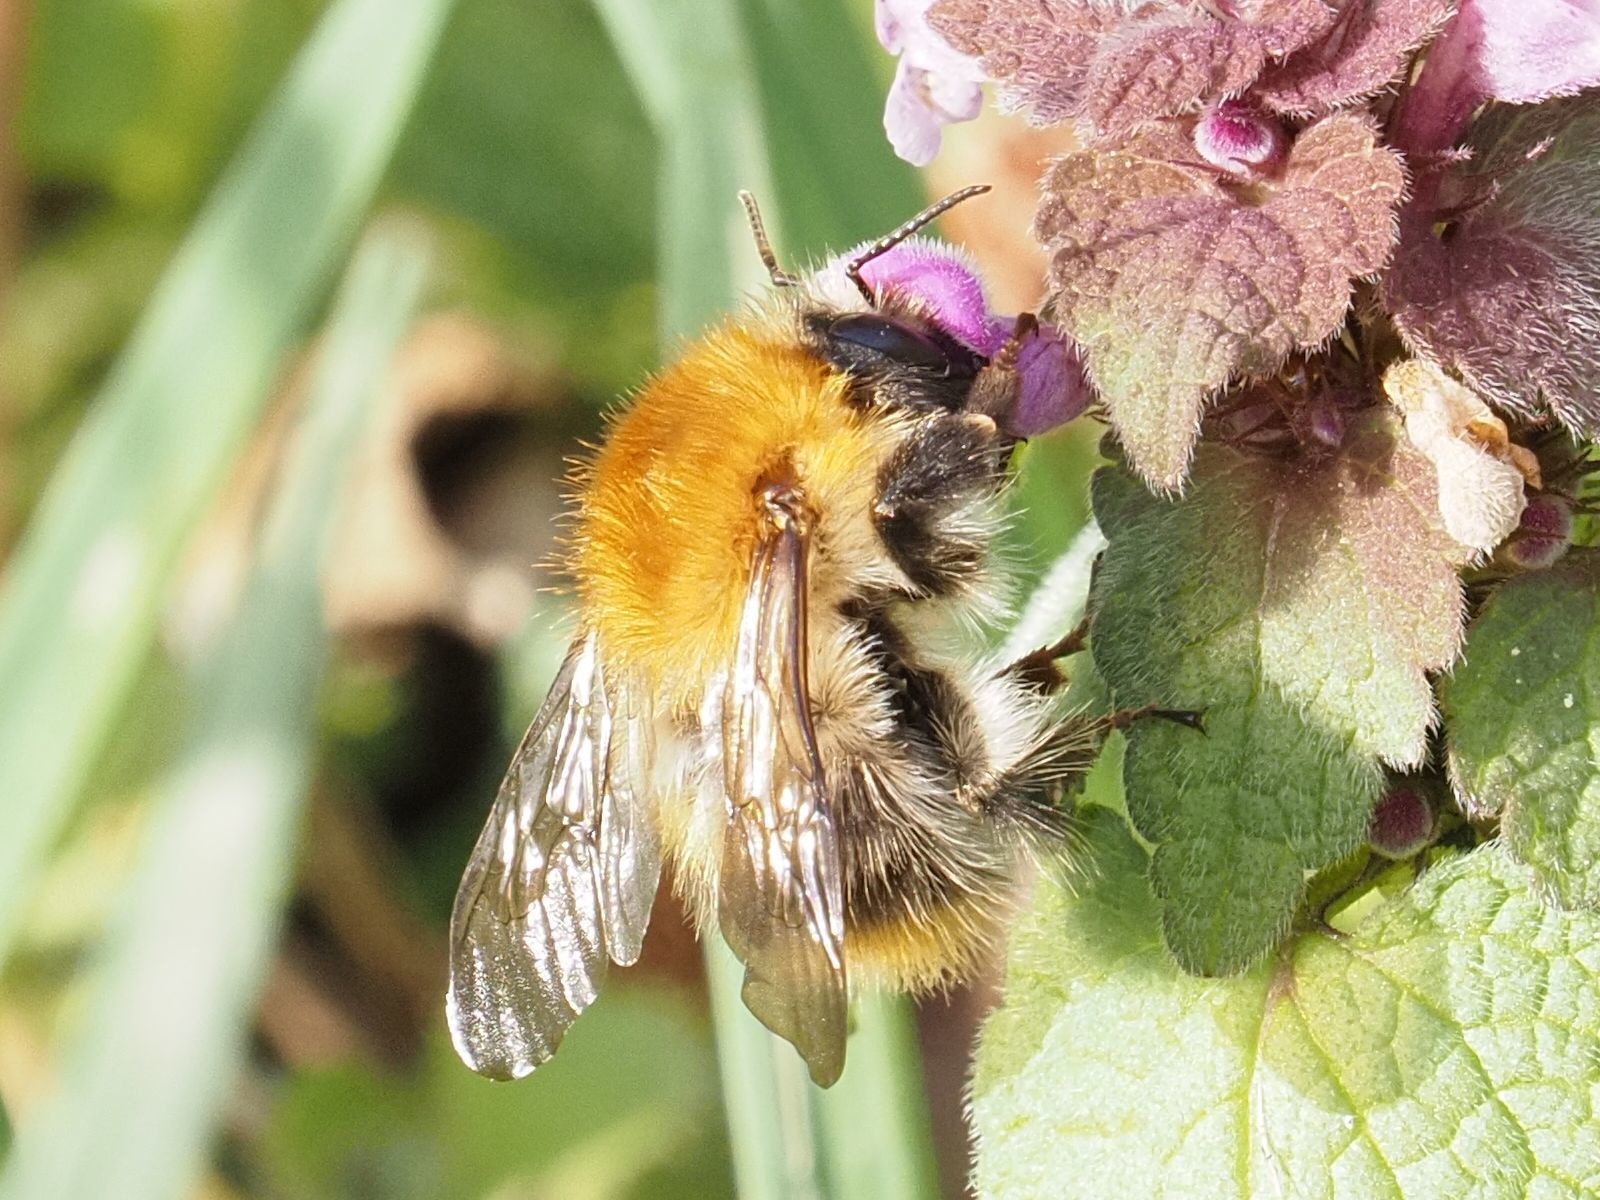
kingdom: Animalia
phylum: Arthropoda
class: Insecta
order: Hymenoptera
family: Apidae
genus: Bombus
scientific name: Bombus pascuorum
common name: Common carder bee
